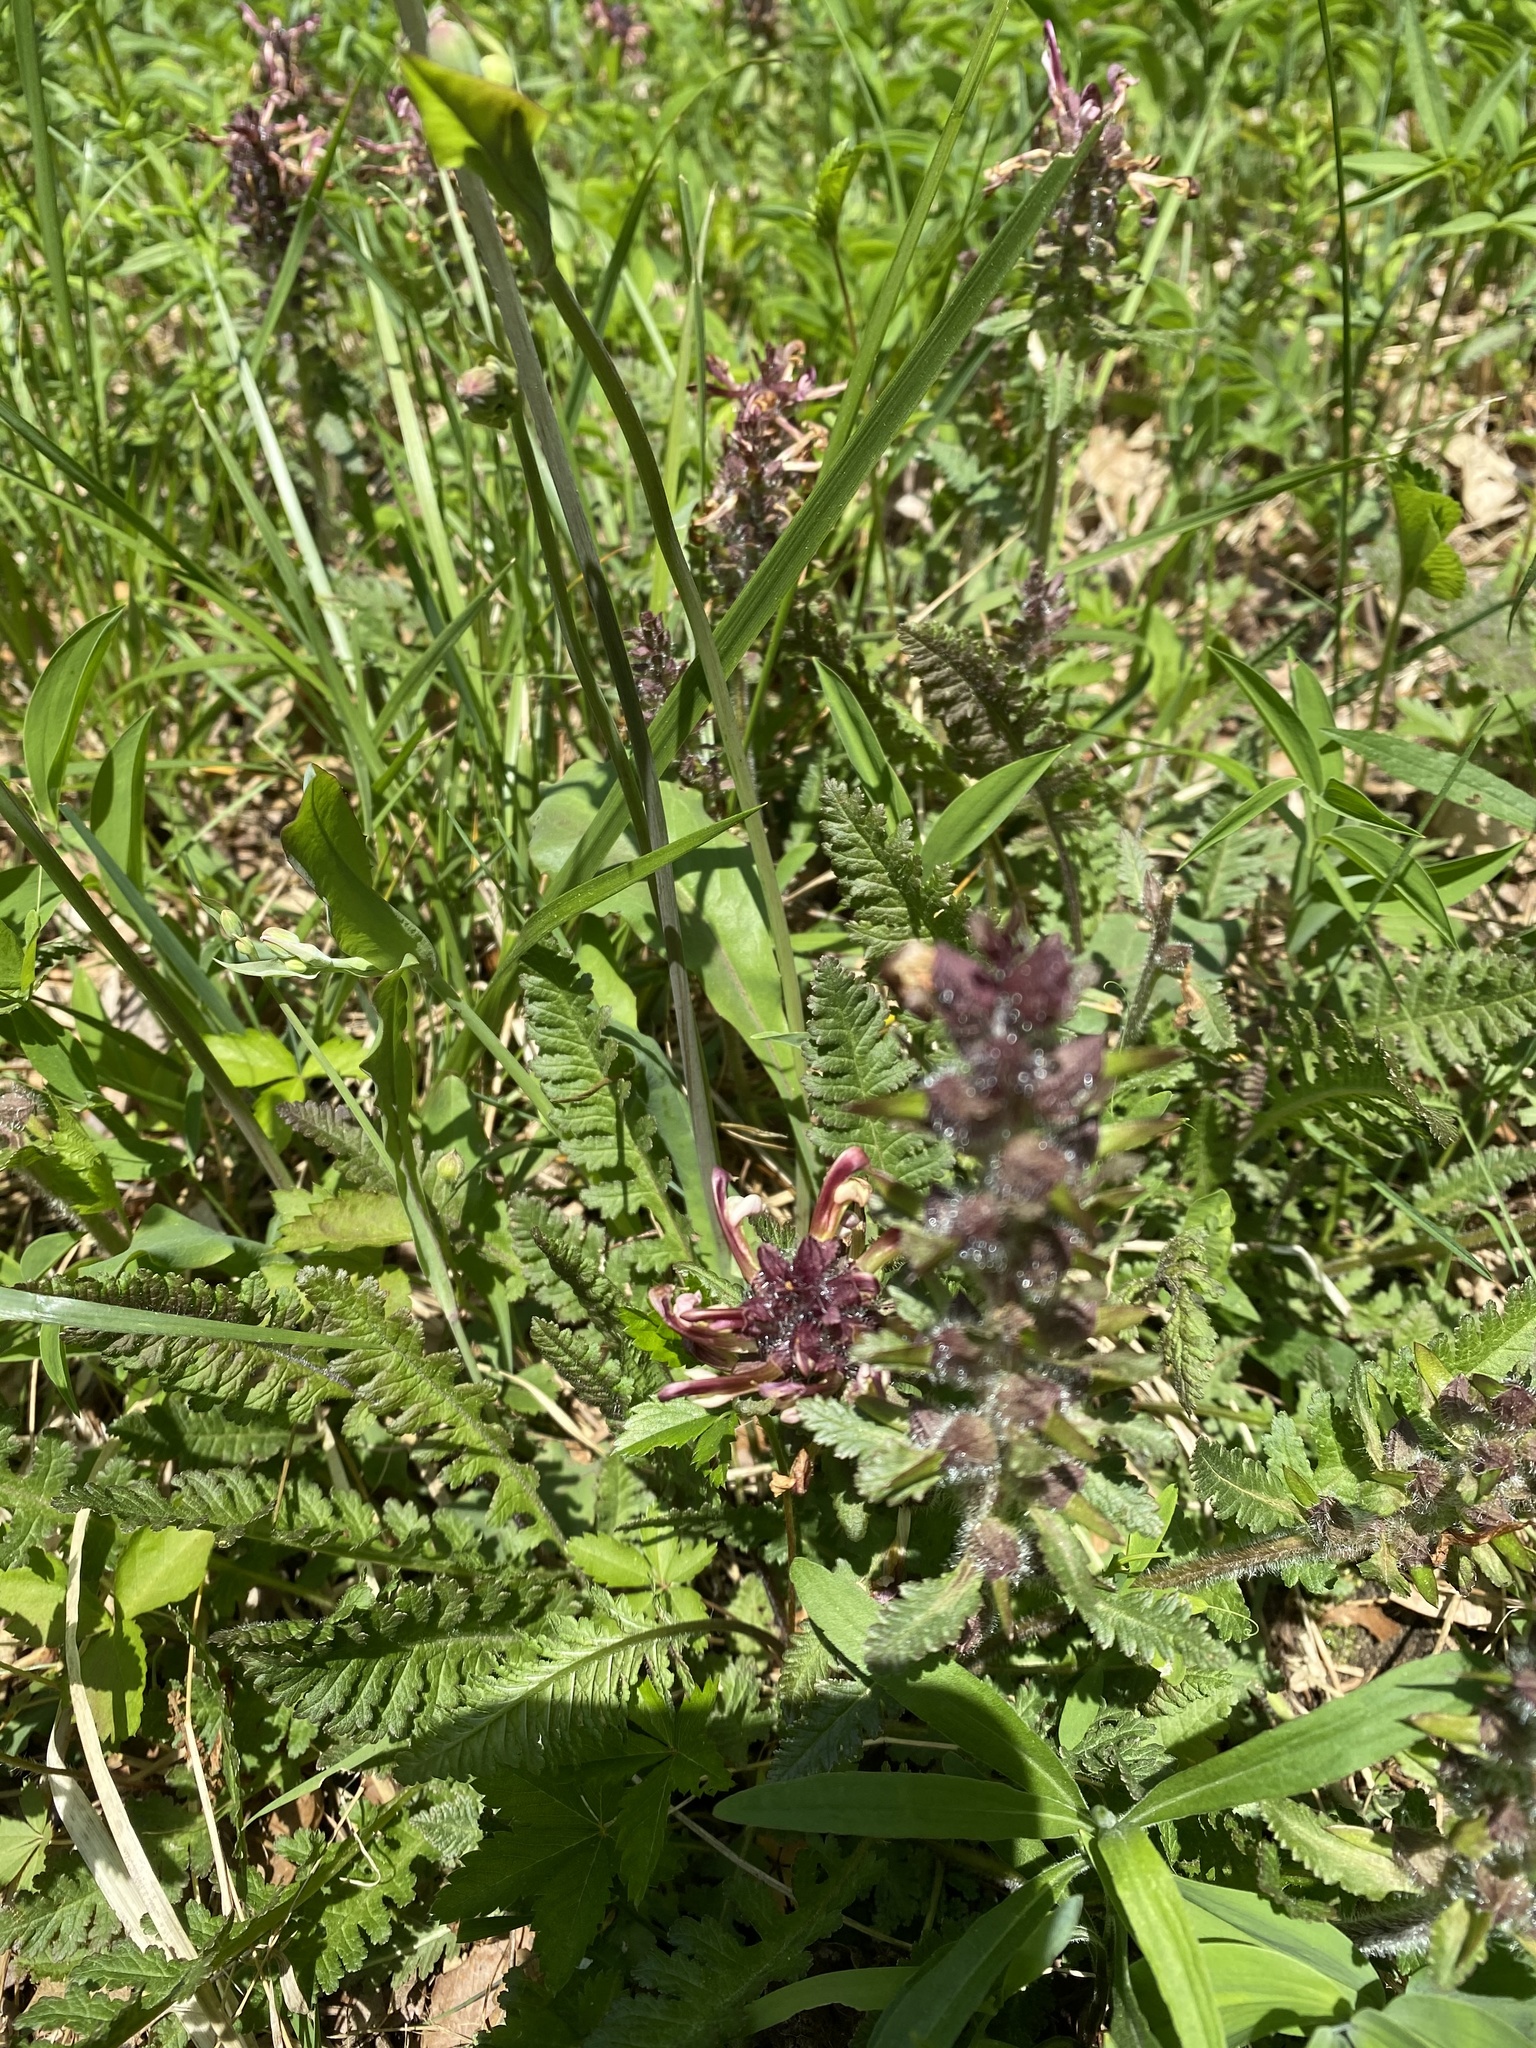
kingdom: Plantae
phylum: Tracheophyta
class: Magnoliopsida
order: Lamiales
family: Orobanchaceae
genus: Pedicularis
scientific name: Pedicularis canadensis
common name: Early lousewort
